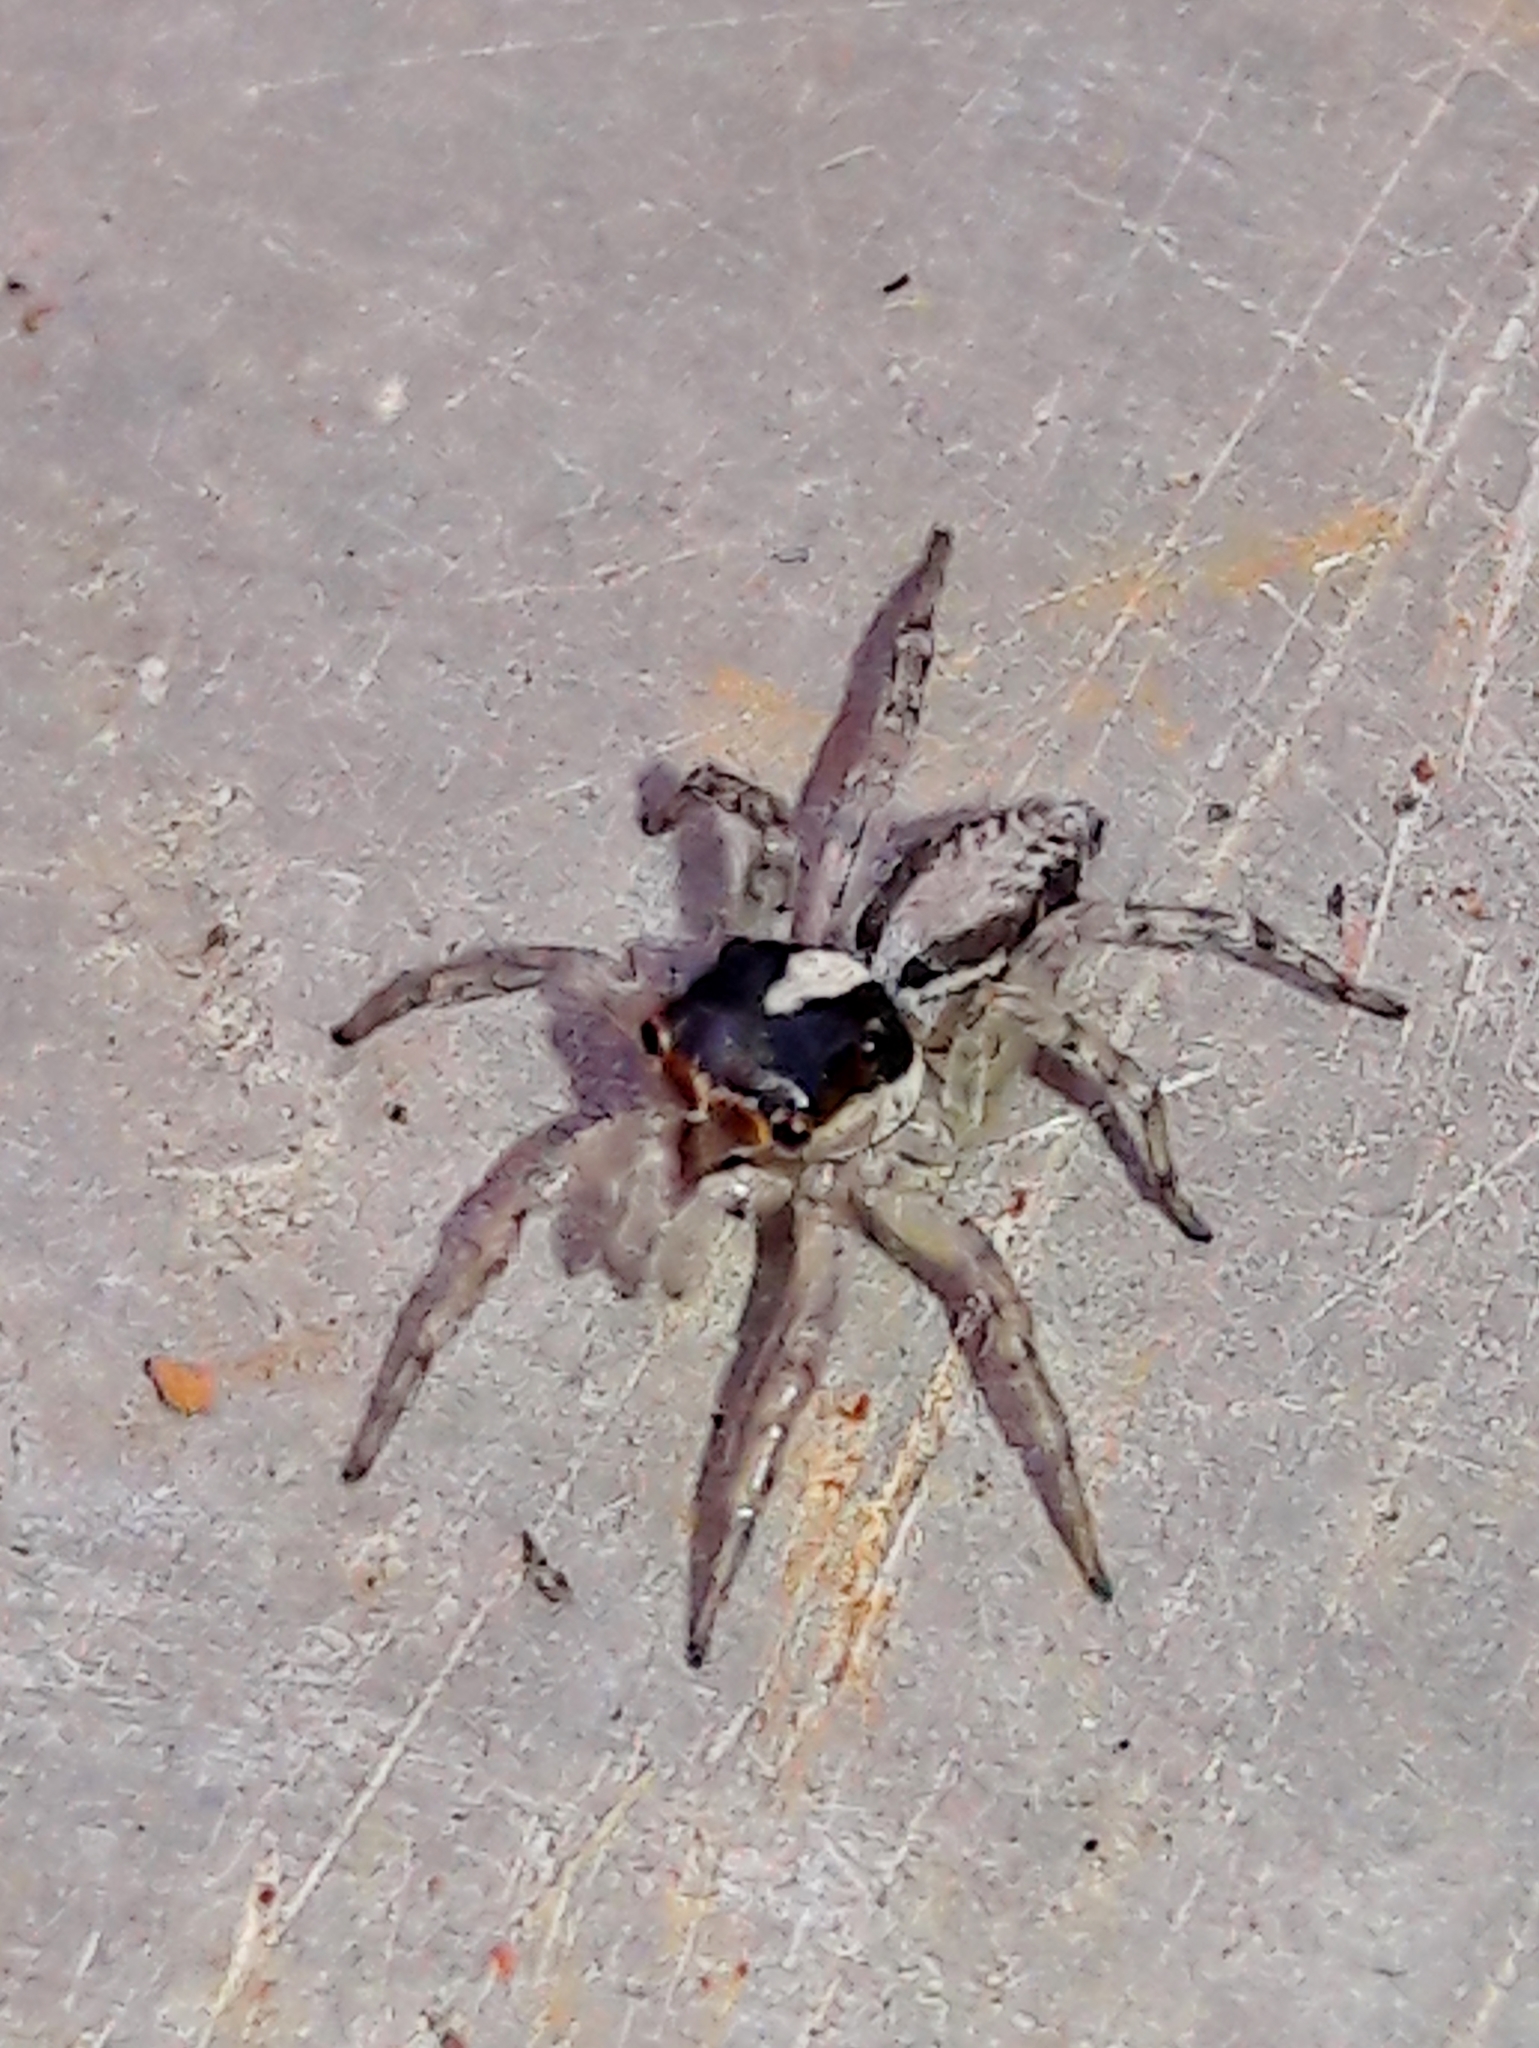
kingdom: Animalia
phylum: Arthropoda
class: Arachnida
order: Araneae
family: Salticidae
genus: Maeota
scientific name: Maeota dichrura
